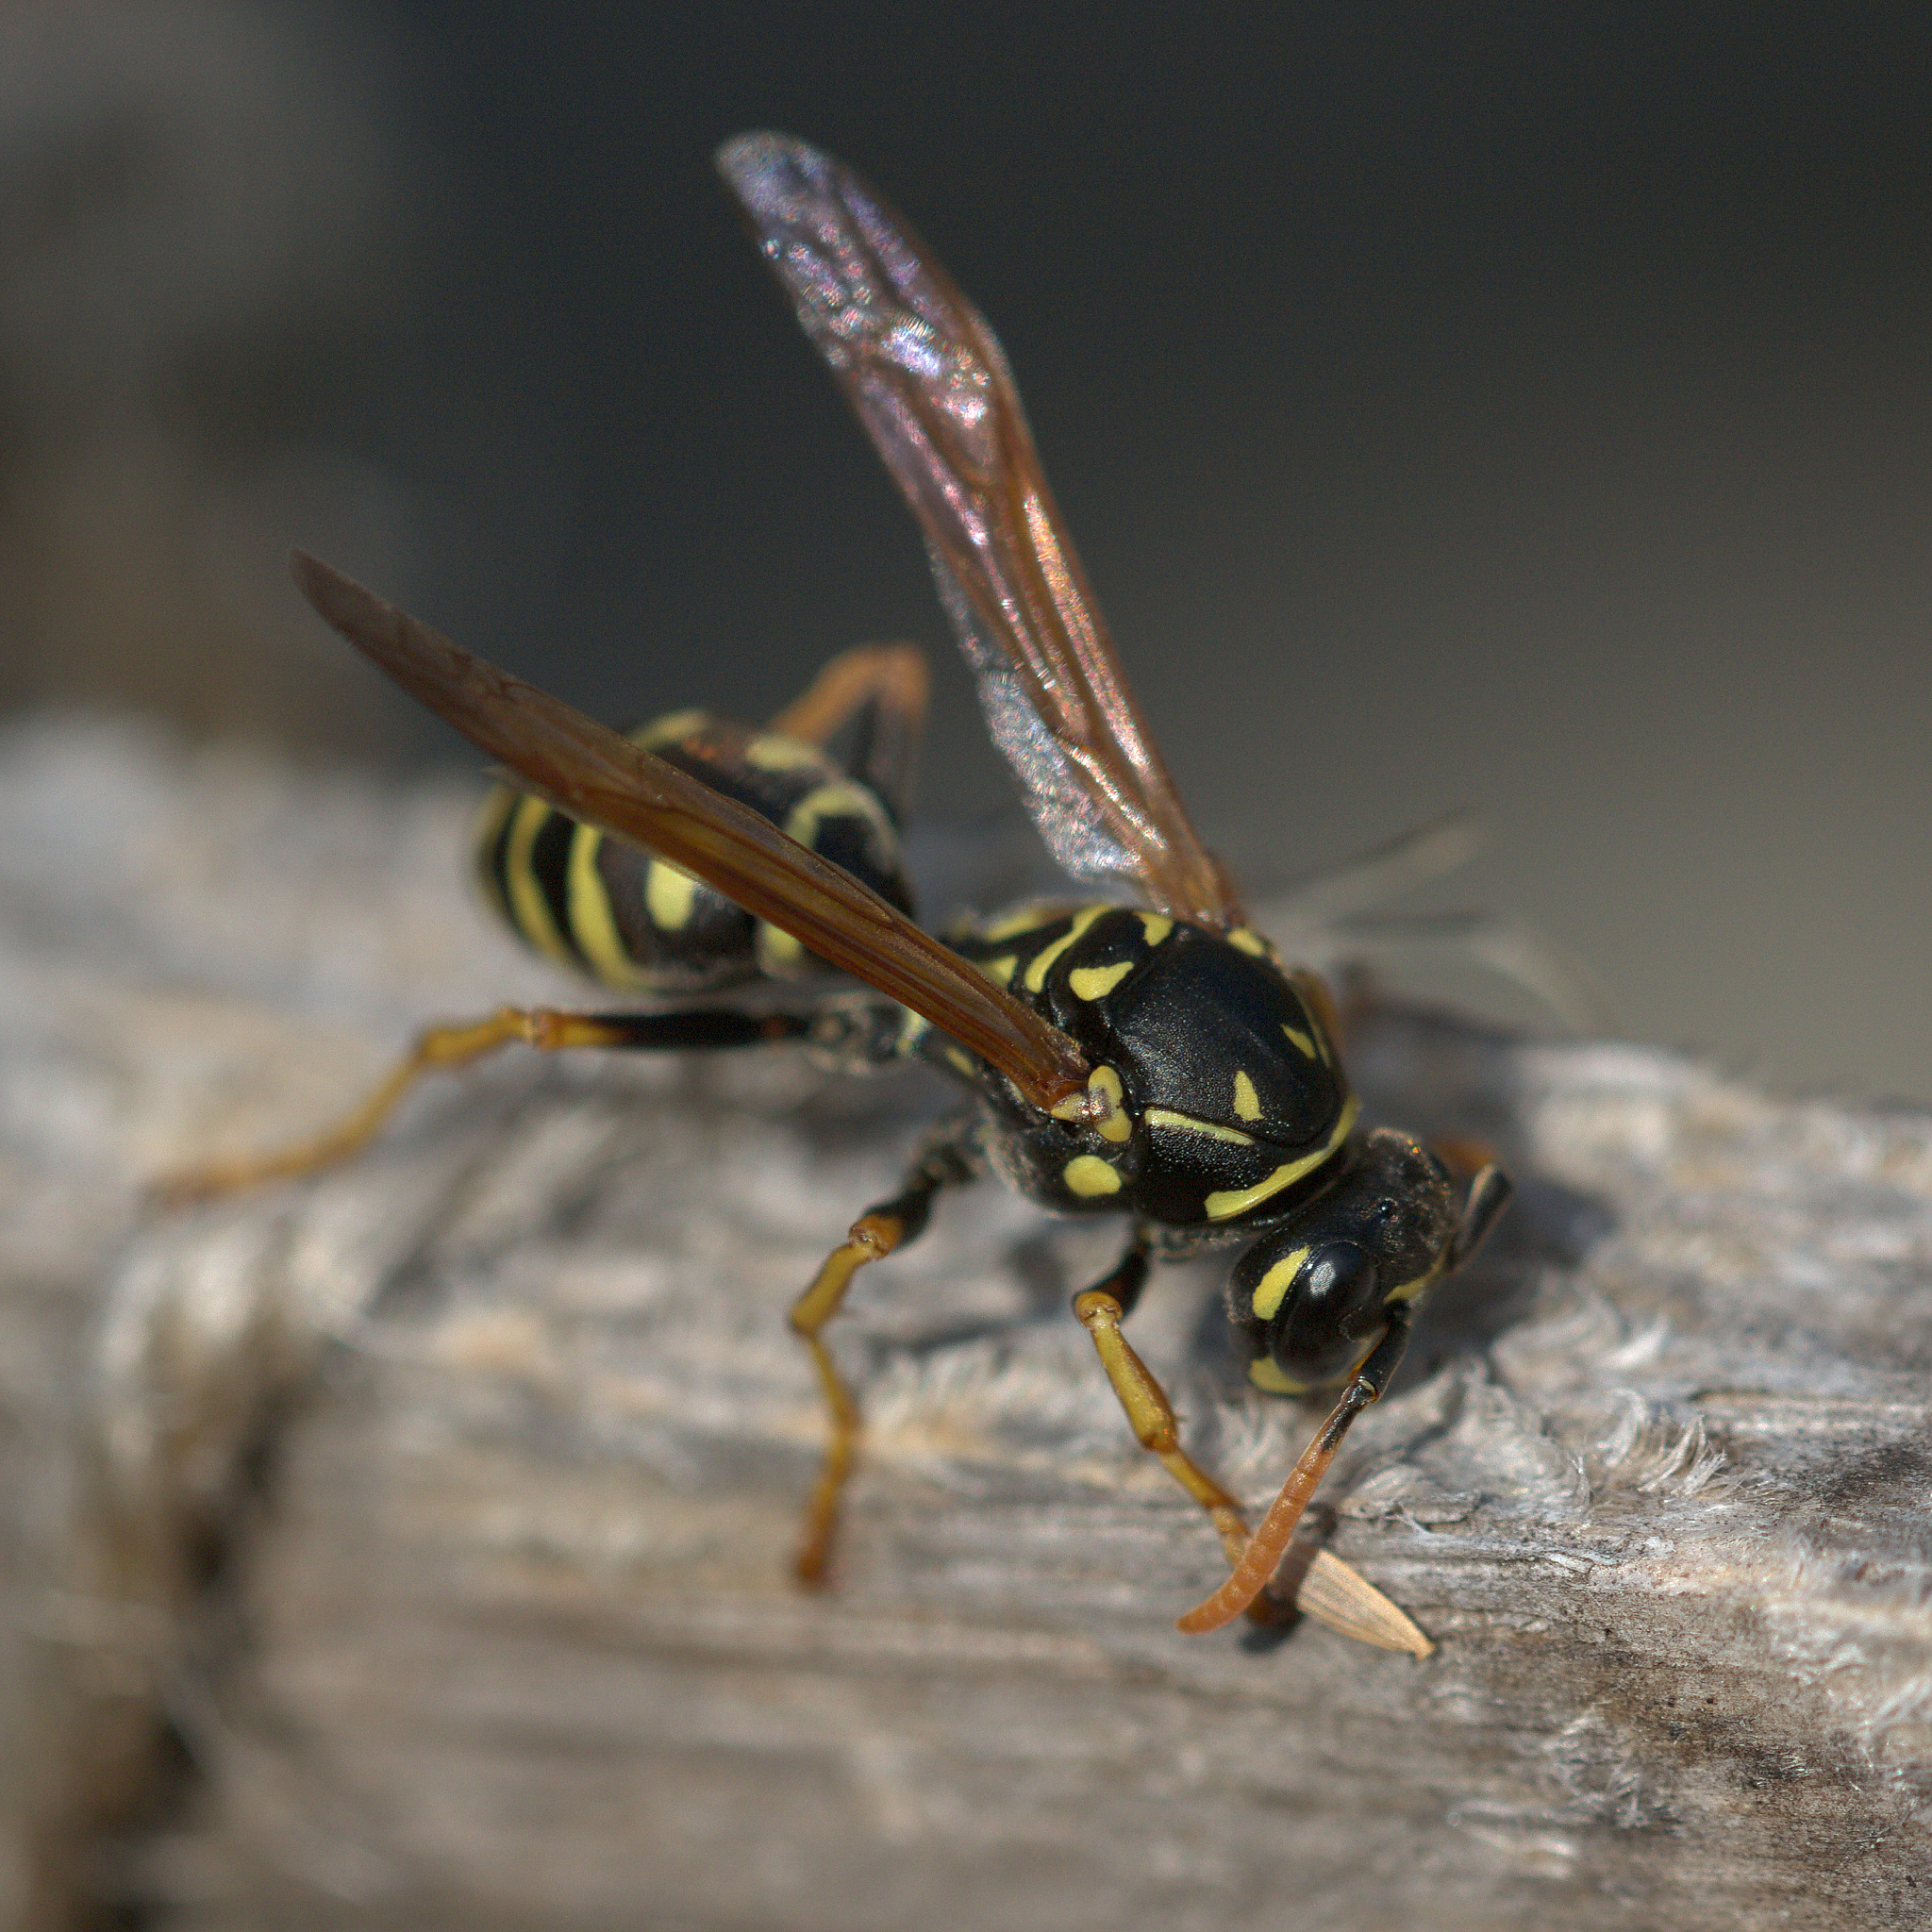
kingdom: Animalia
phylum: Arthropoda
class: Insecta
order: Hymenoptera
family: Eumenidae
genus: Polistes
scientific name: Polistes dominula
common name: Paper wasp
